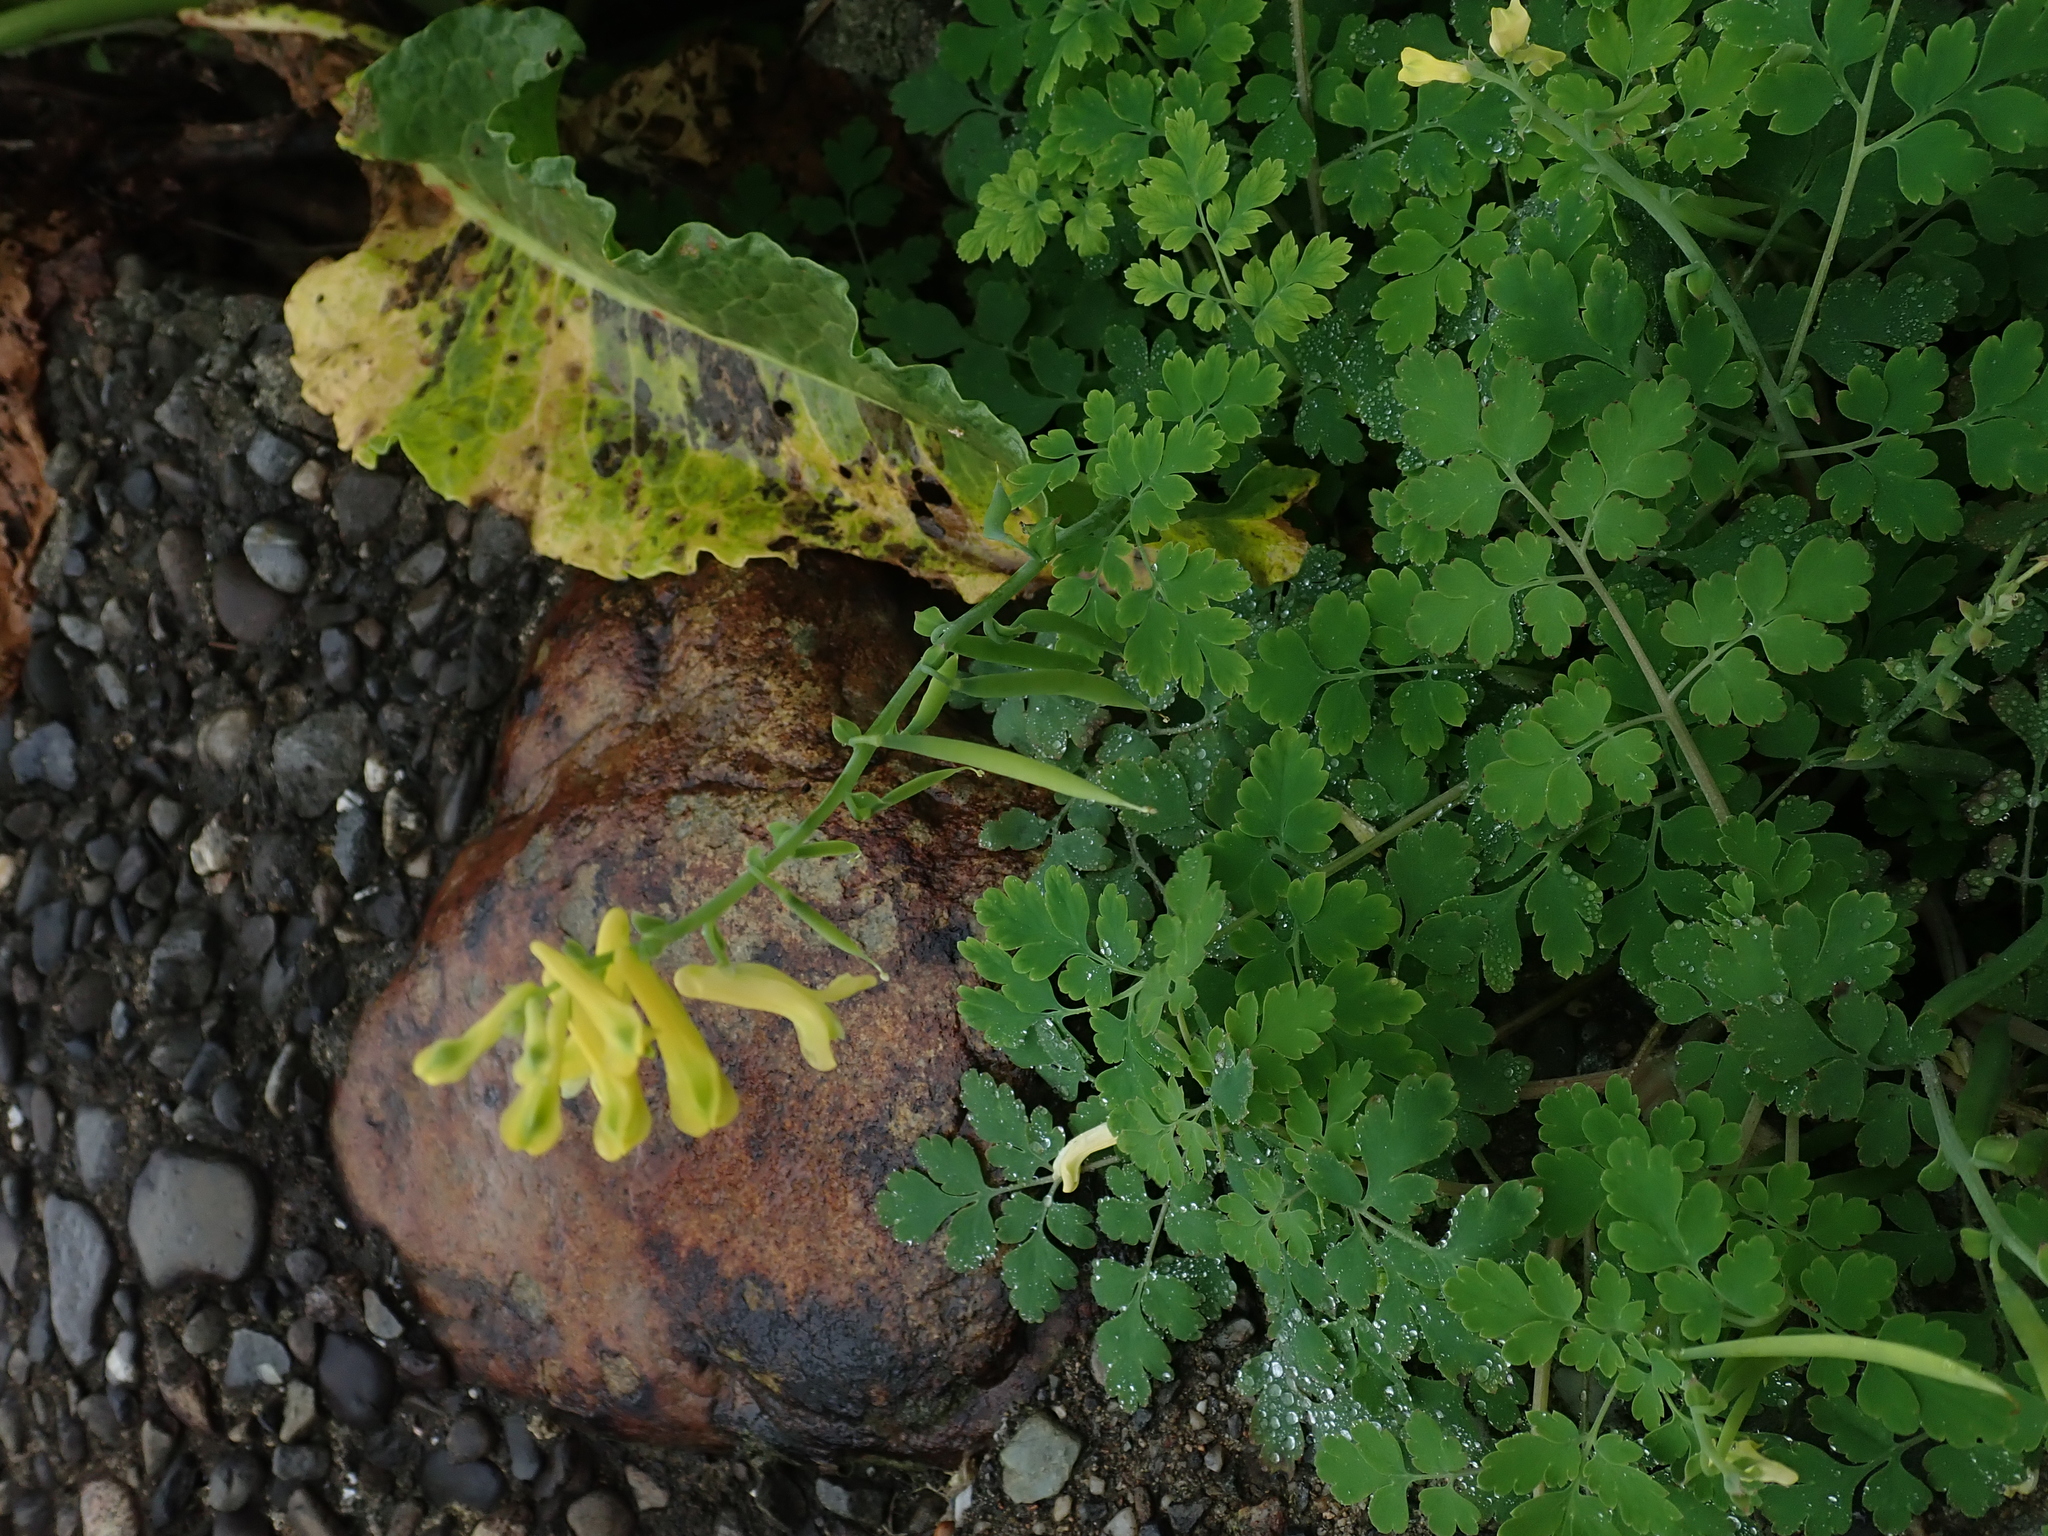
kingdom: Plantae
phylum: Tracheophyta
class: Magnoliopsida
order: Ranunculales
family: Papaveraceae
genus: Corydalis
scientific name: Corydalis balansae
